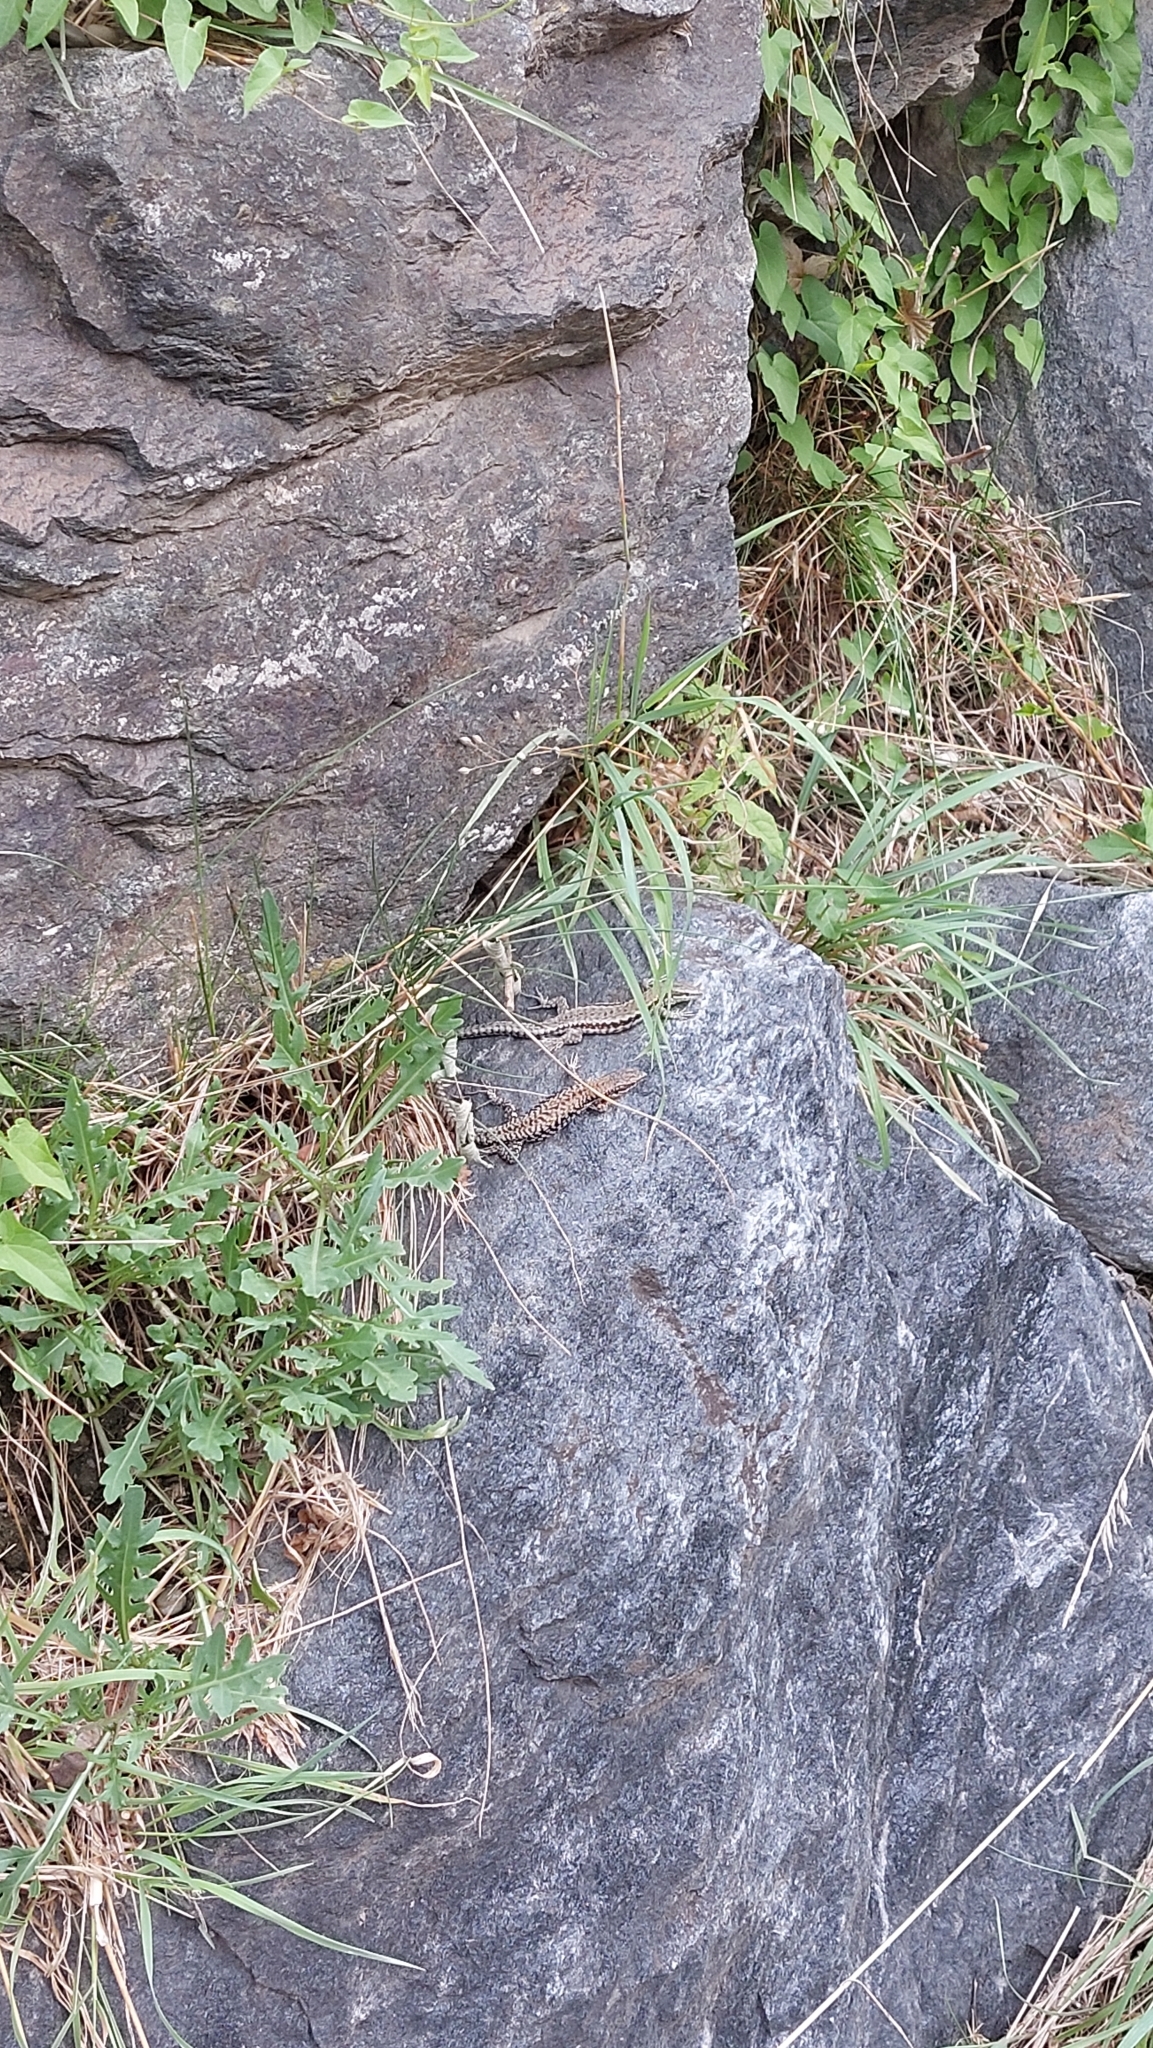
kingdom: Animalia
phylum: Chordata
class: Squamata
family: Lacertidae
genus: Podarcis
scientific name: Podarcis muralis
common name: Common wall lizard
